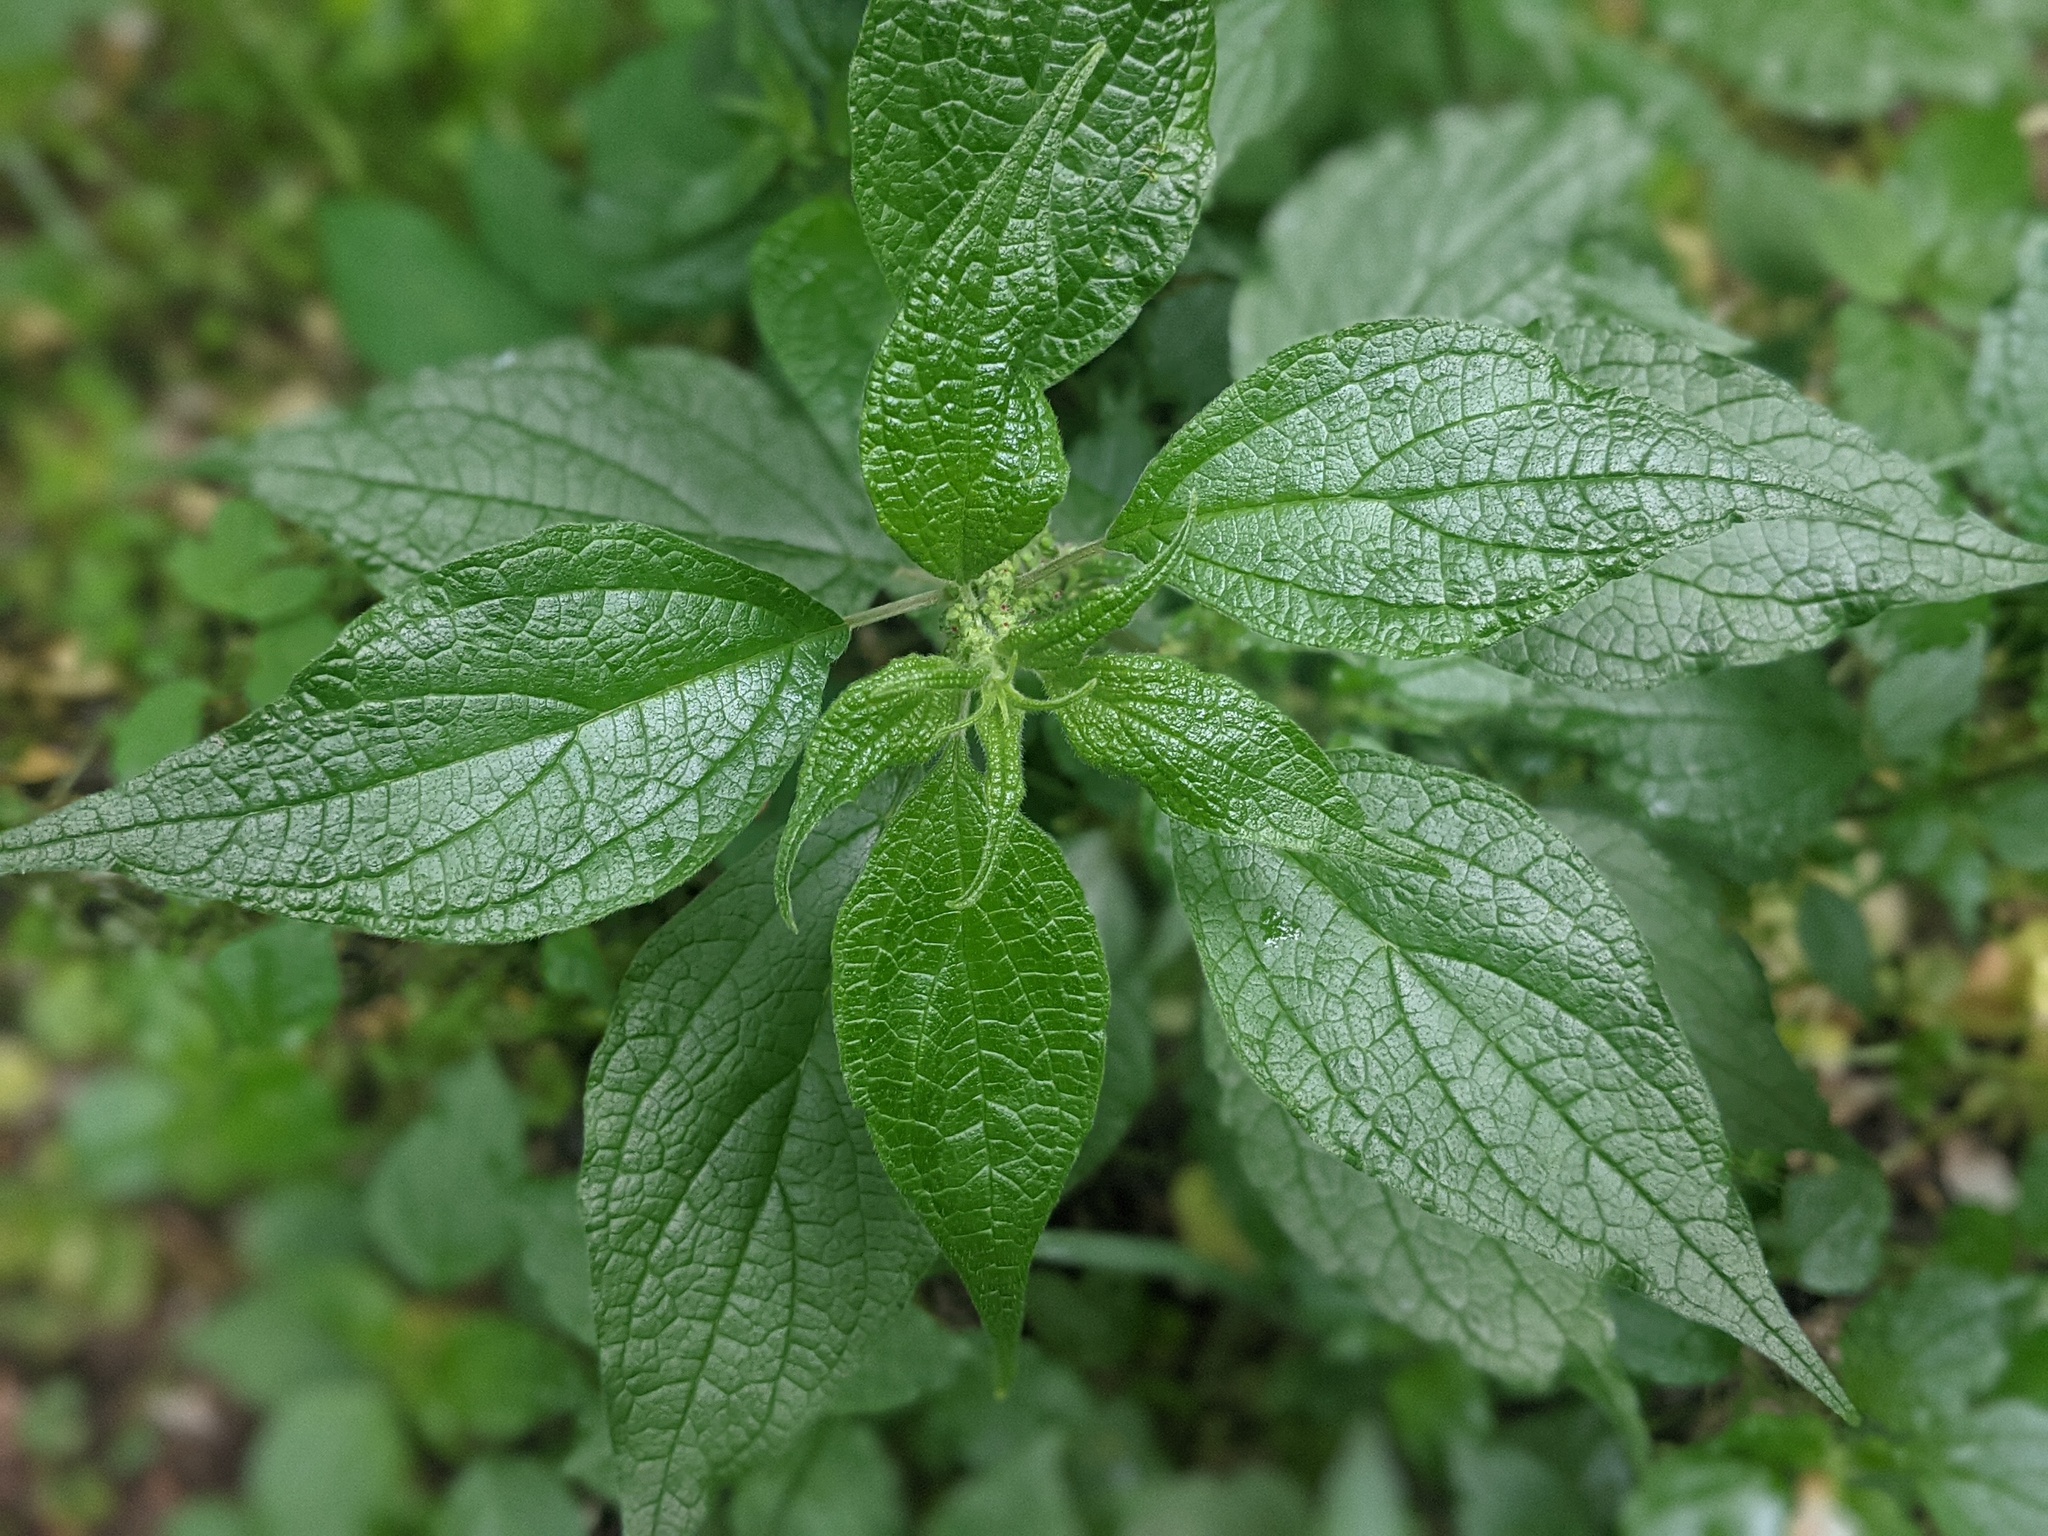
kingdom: Plantae
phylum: Tracheophyta
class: Magnoliopsida
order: Rosales
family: Urticaceae
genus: Parietaria
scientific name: Parietaria officinalis
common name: Eastern pellitory-of-the-wall
